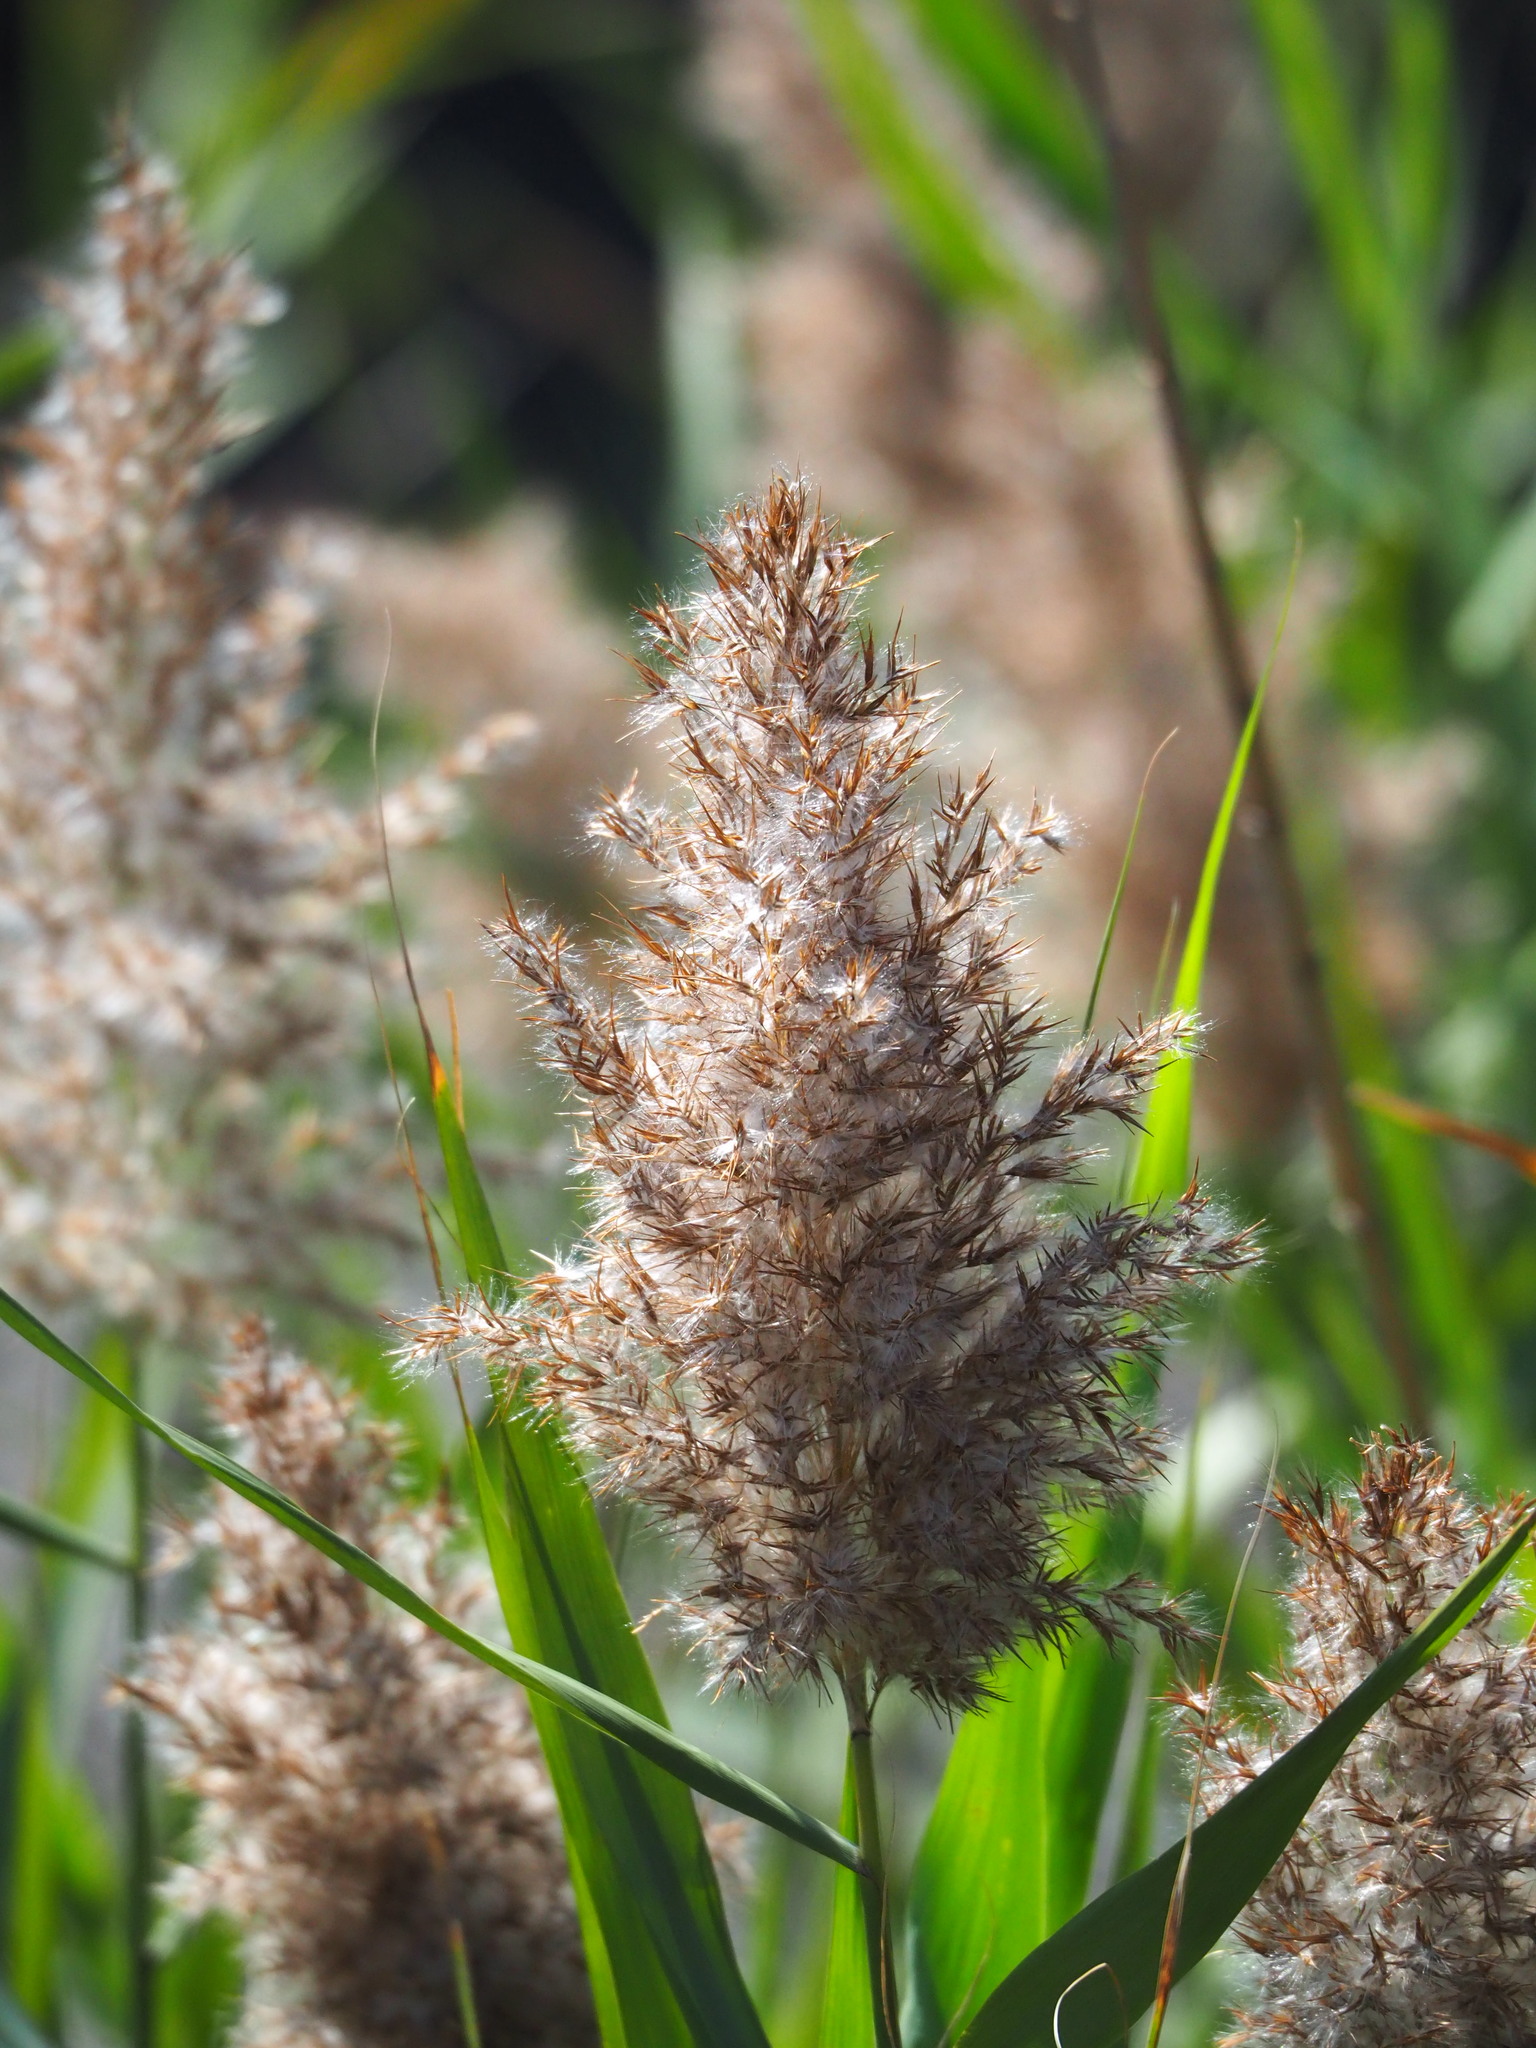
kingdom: Plantae
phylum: Tracheophyta
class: Liliopsida
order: Poales
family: Poaceae
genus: Phragmites
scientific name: Phragmites australis
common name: Common reed
